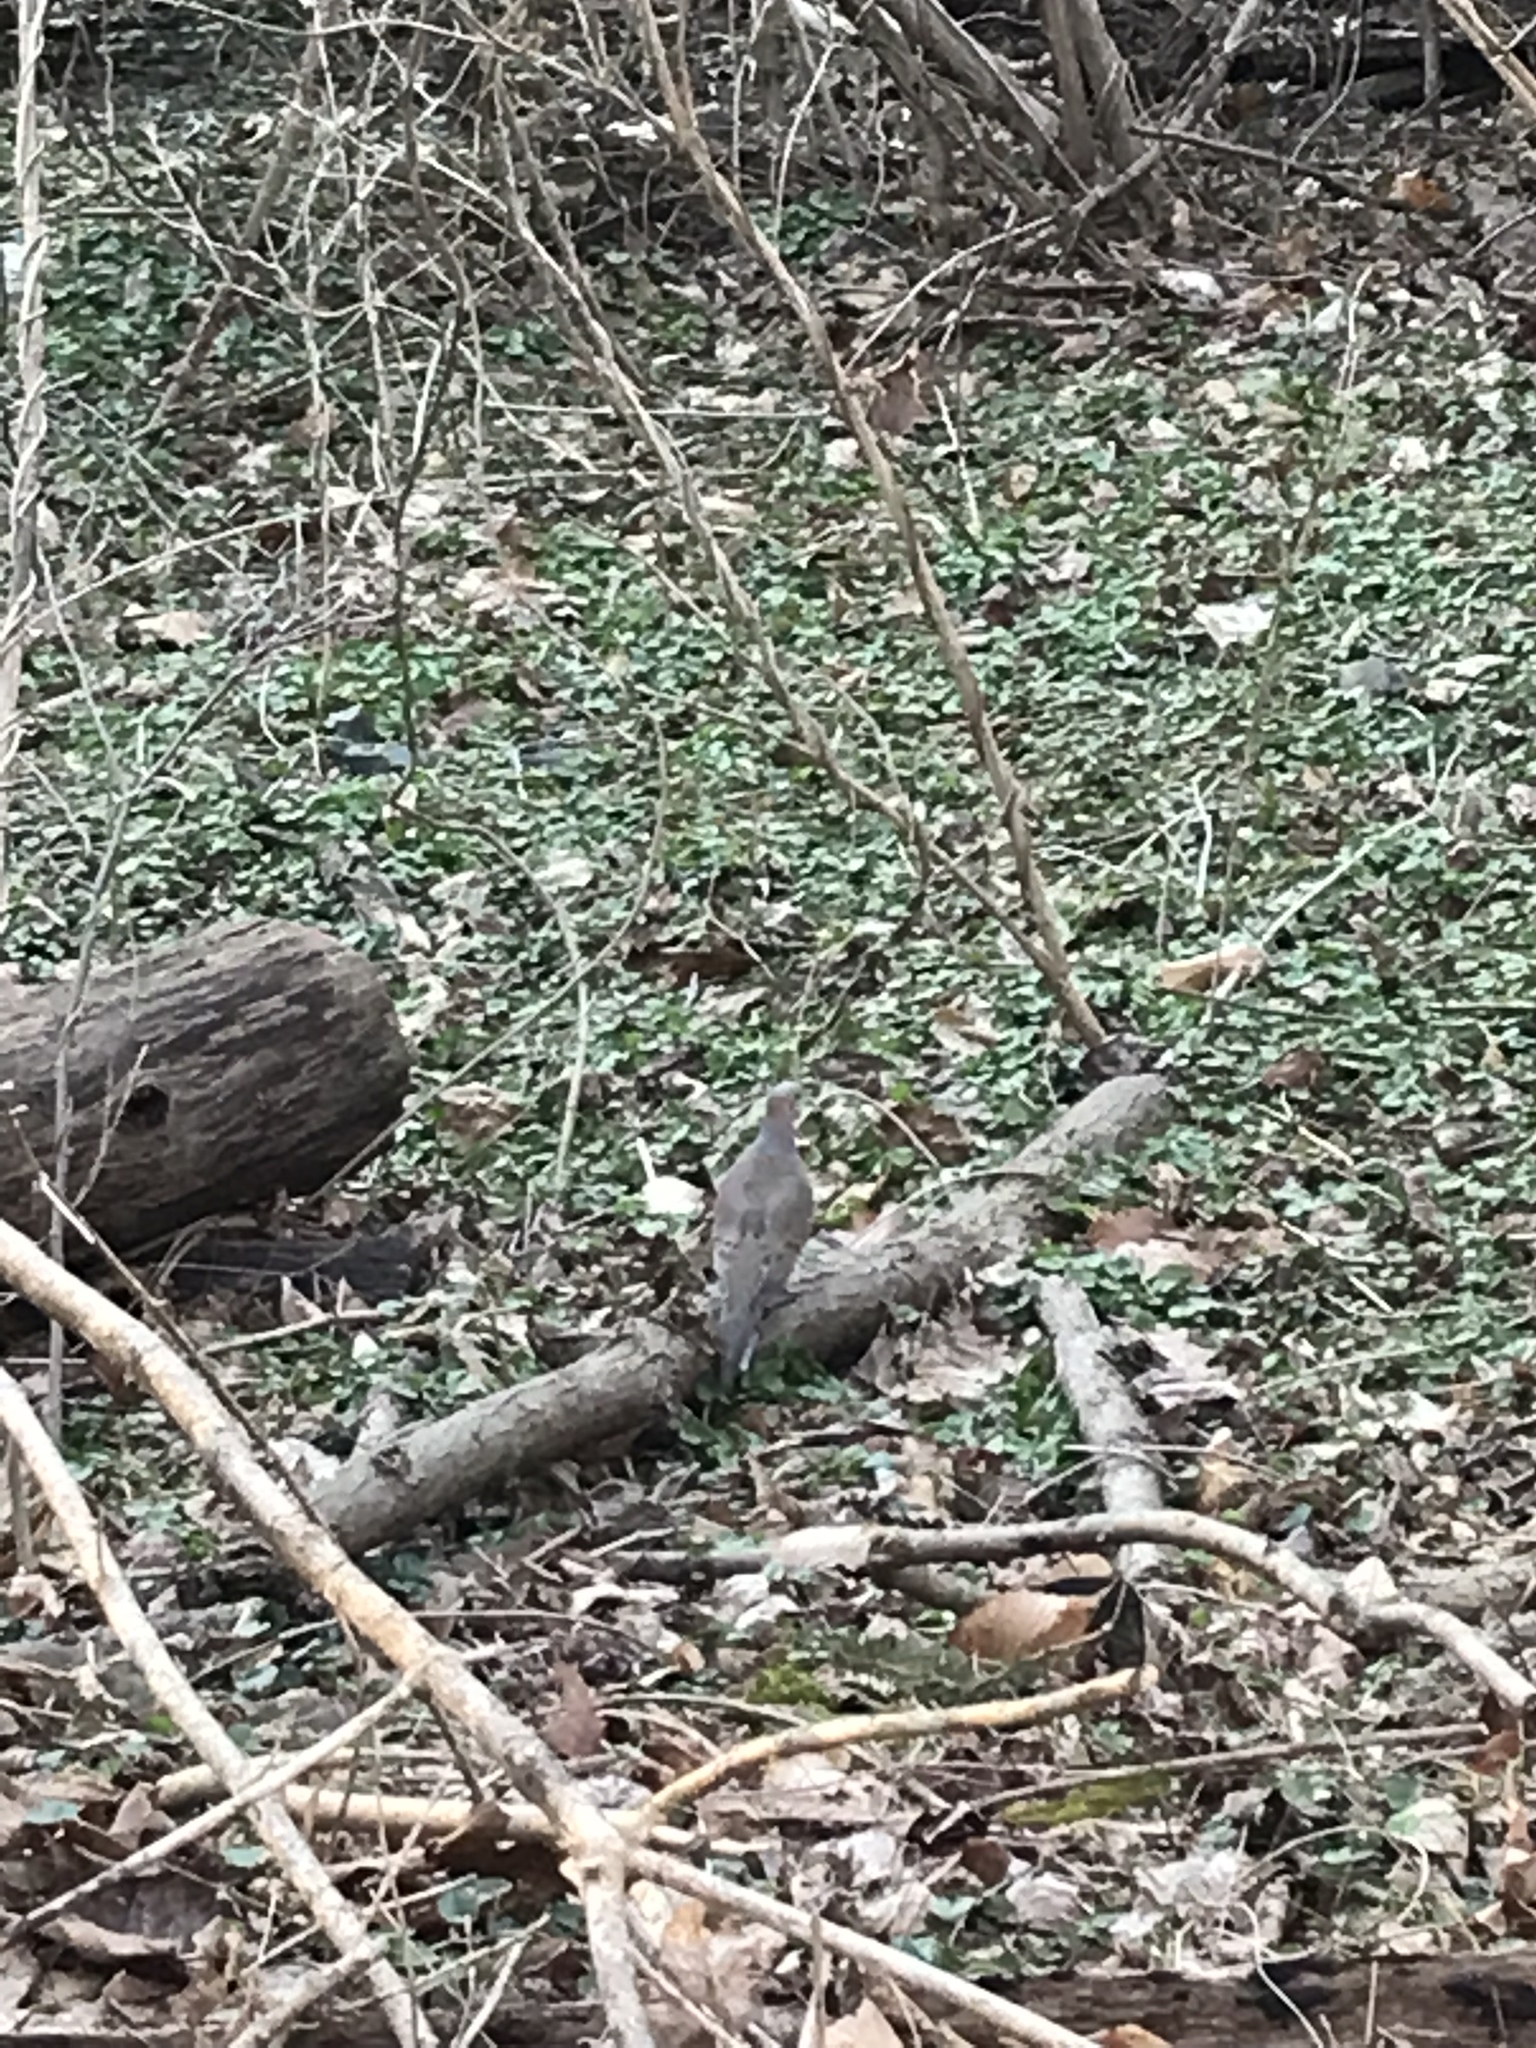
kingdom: Animalia
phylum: Chordata
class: Aves
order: Columbiformes
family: Columbidae
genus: Zenaida
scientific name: Zenaida macroura
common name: Mourning dove
